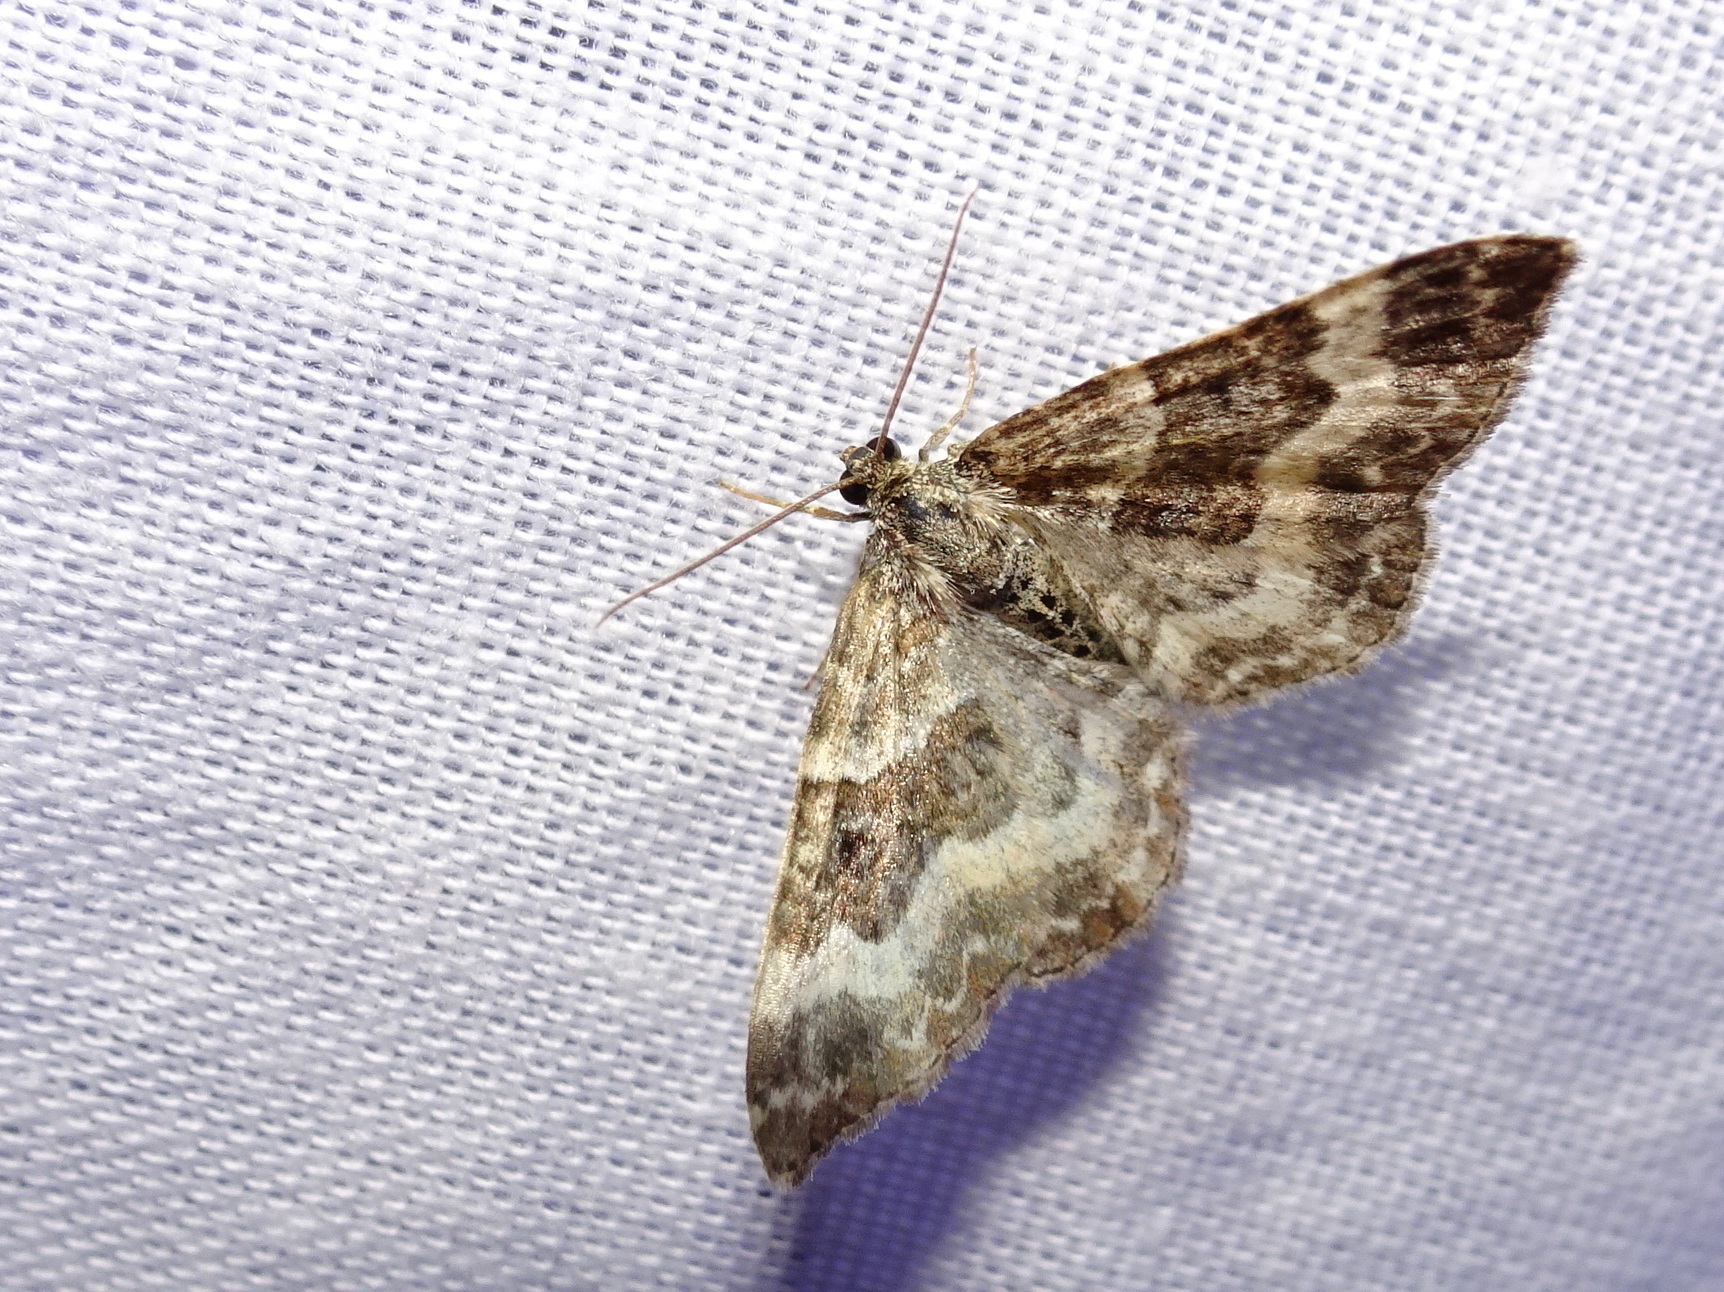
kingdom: Animalia
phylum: Arthropoda
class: Insecta
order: Lepidoptera
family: Geometridae
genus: Epirrhoe
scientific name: Epirrhoe alternata
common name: Common carpet
